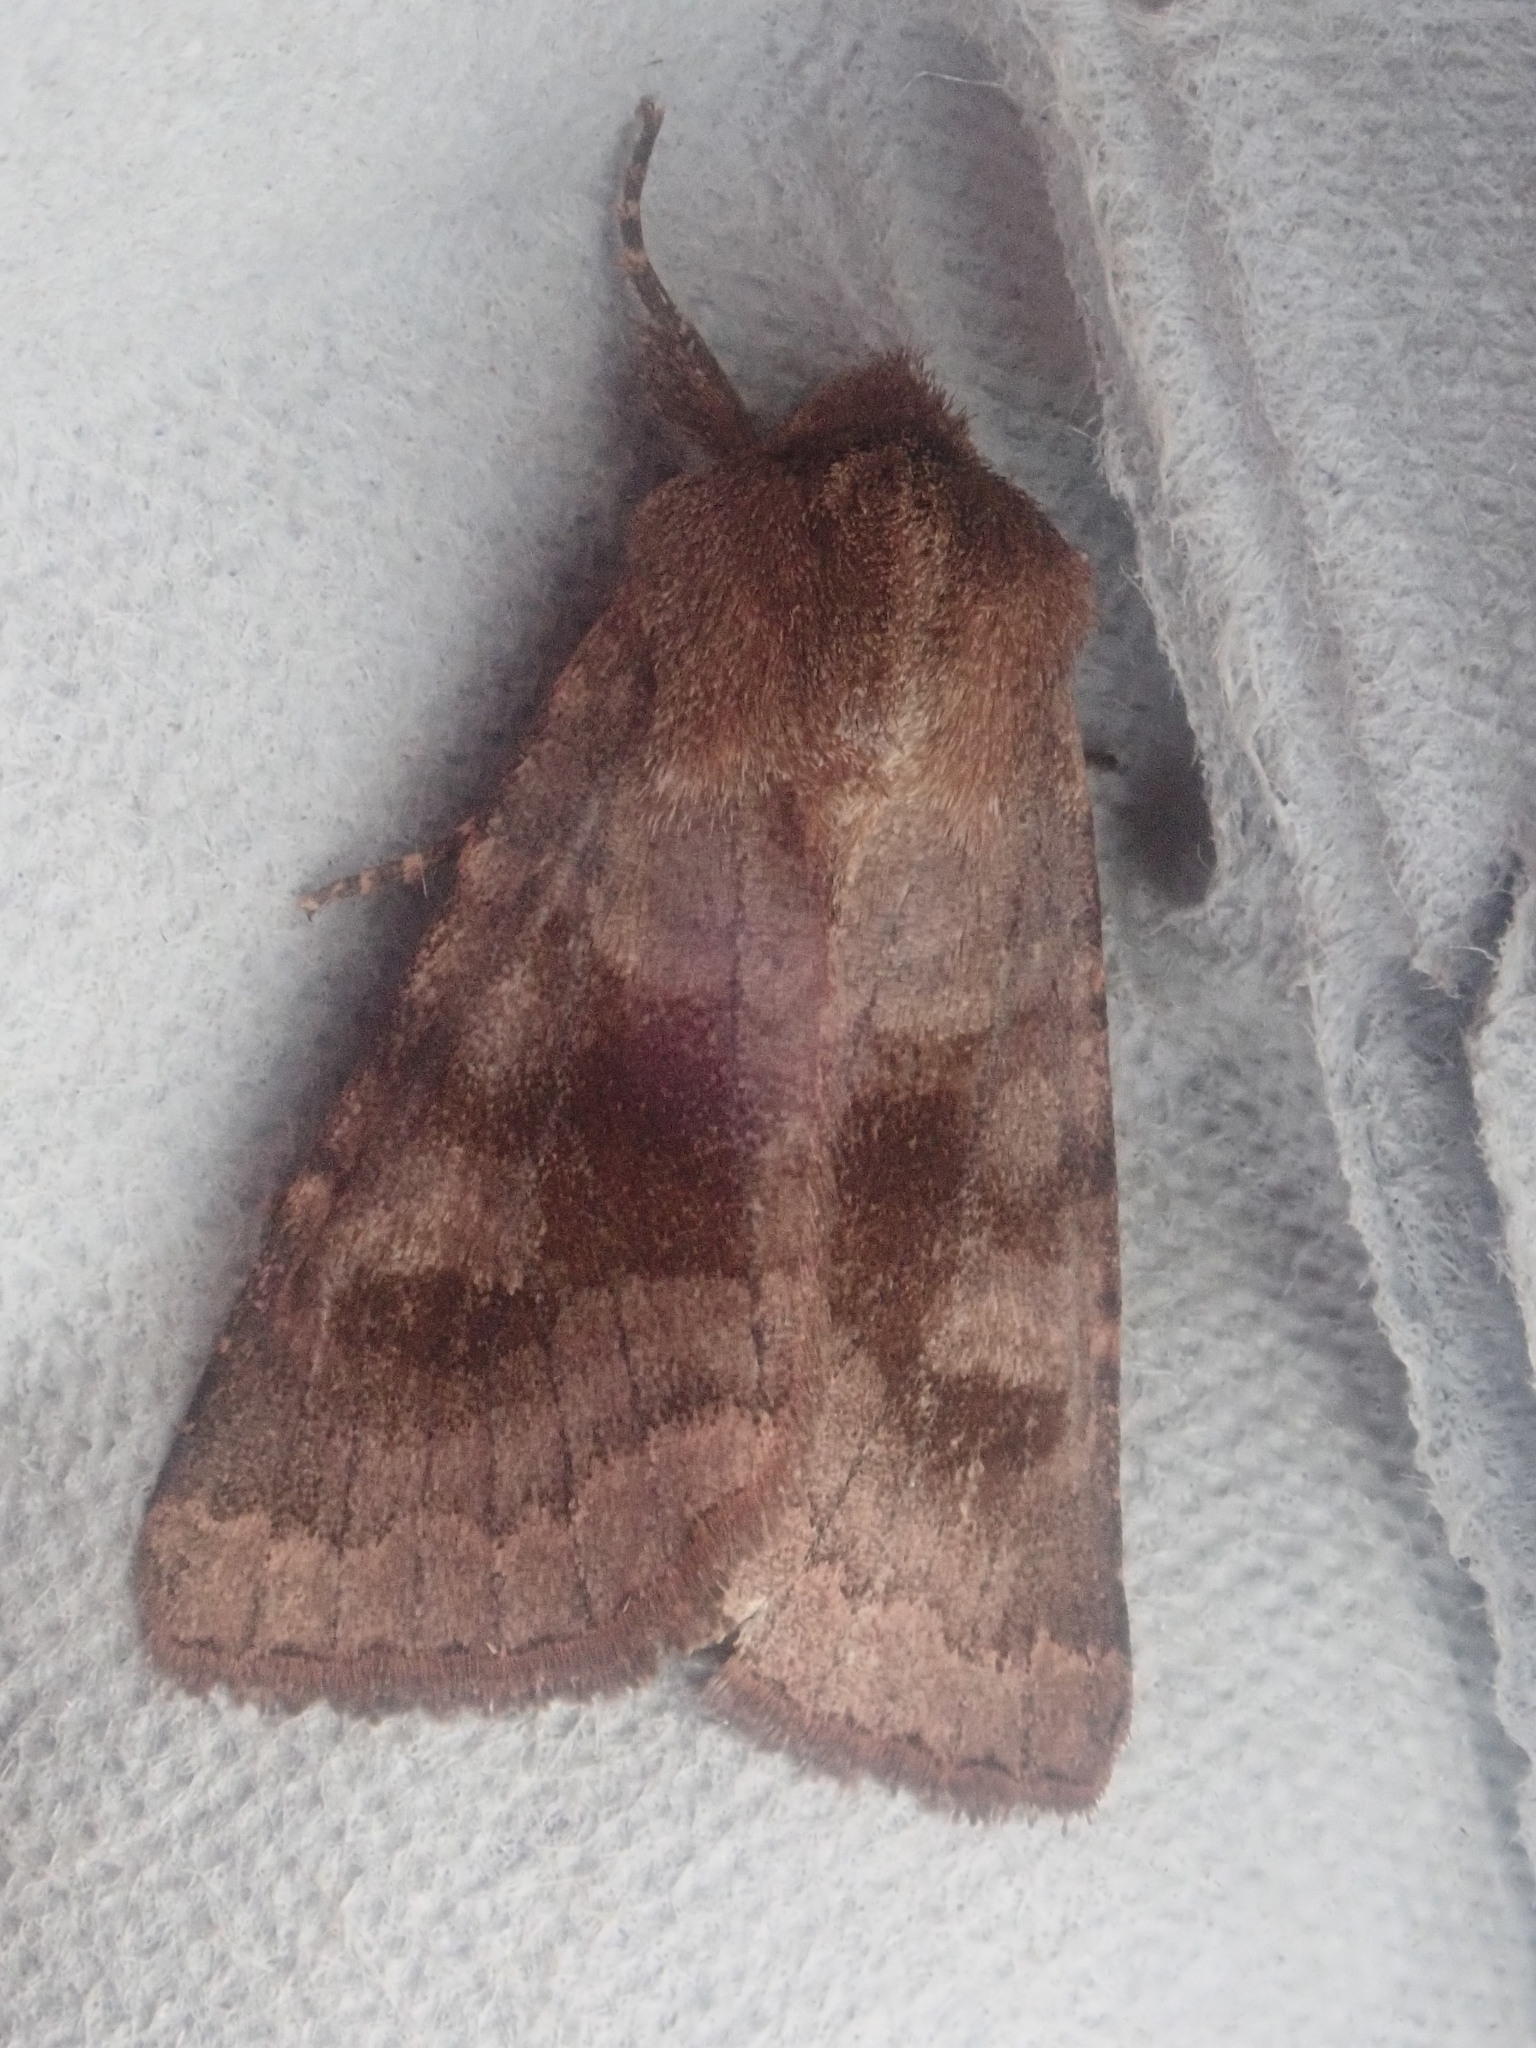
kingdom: Animalia
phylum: Arthropoda
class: Insecta
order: Lepidoptera
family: Noctuidae
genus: Nephelodes
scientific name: Nephelodes minians
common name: Bronzed cutworm
